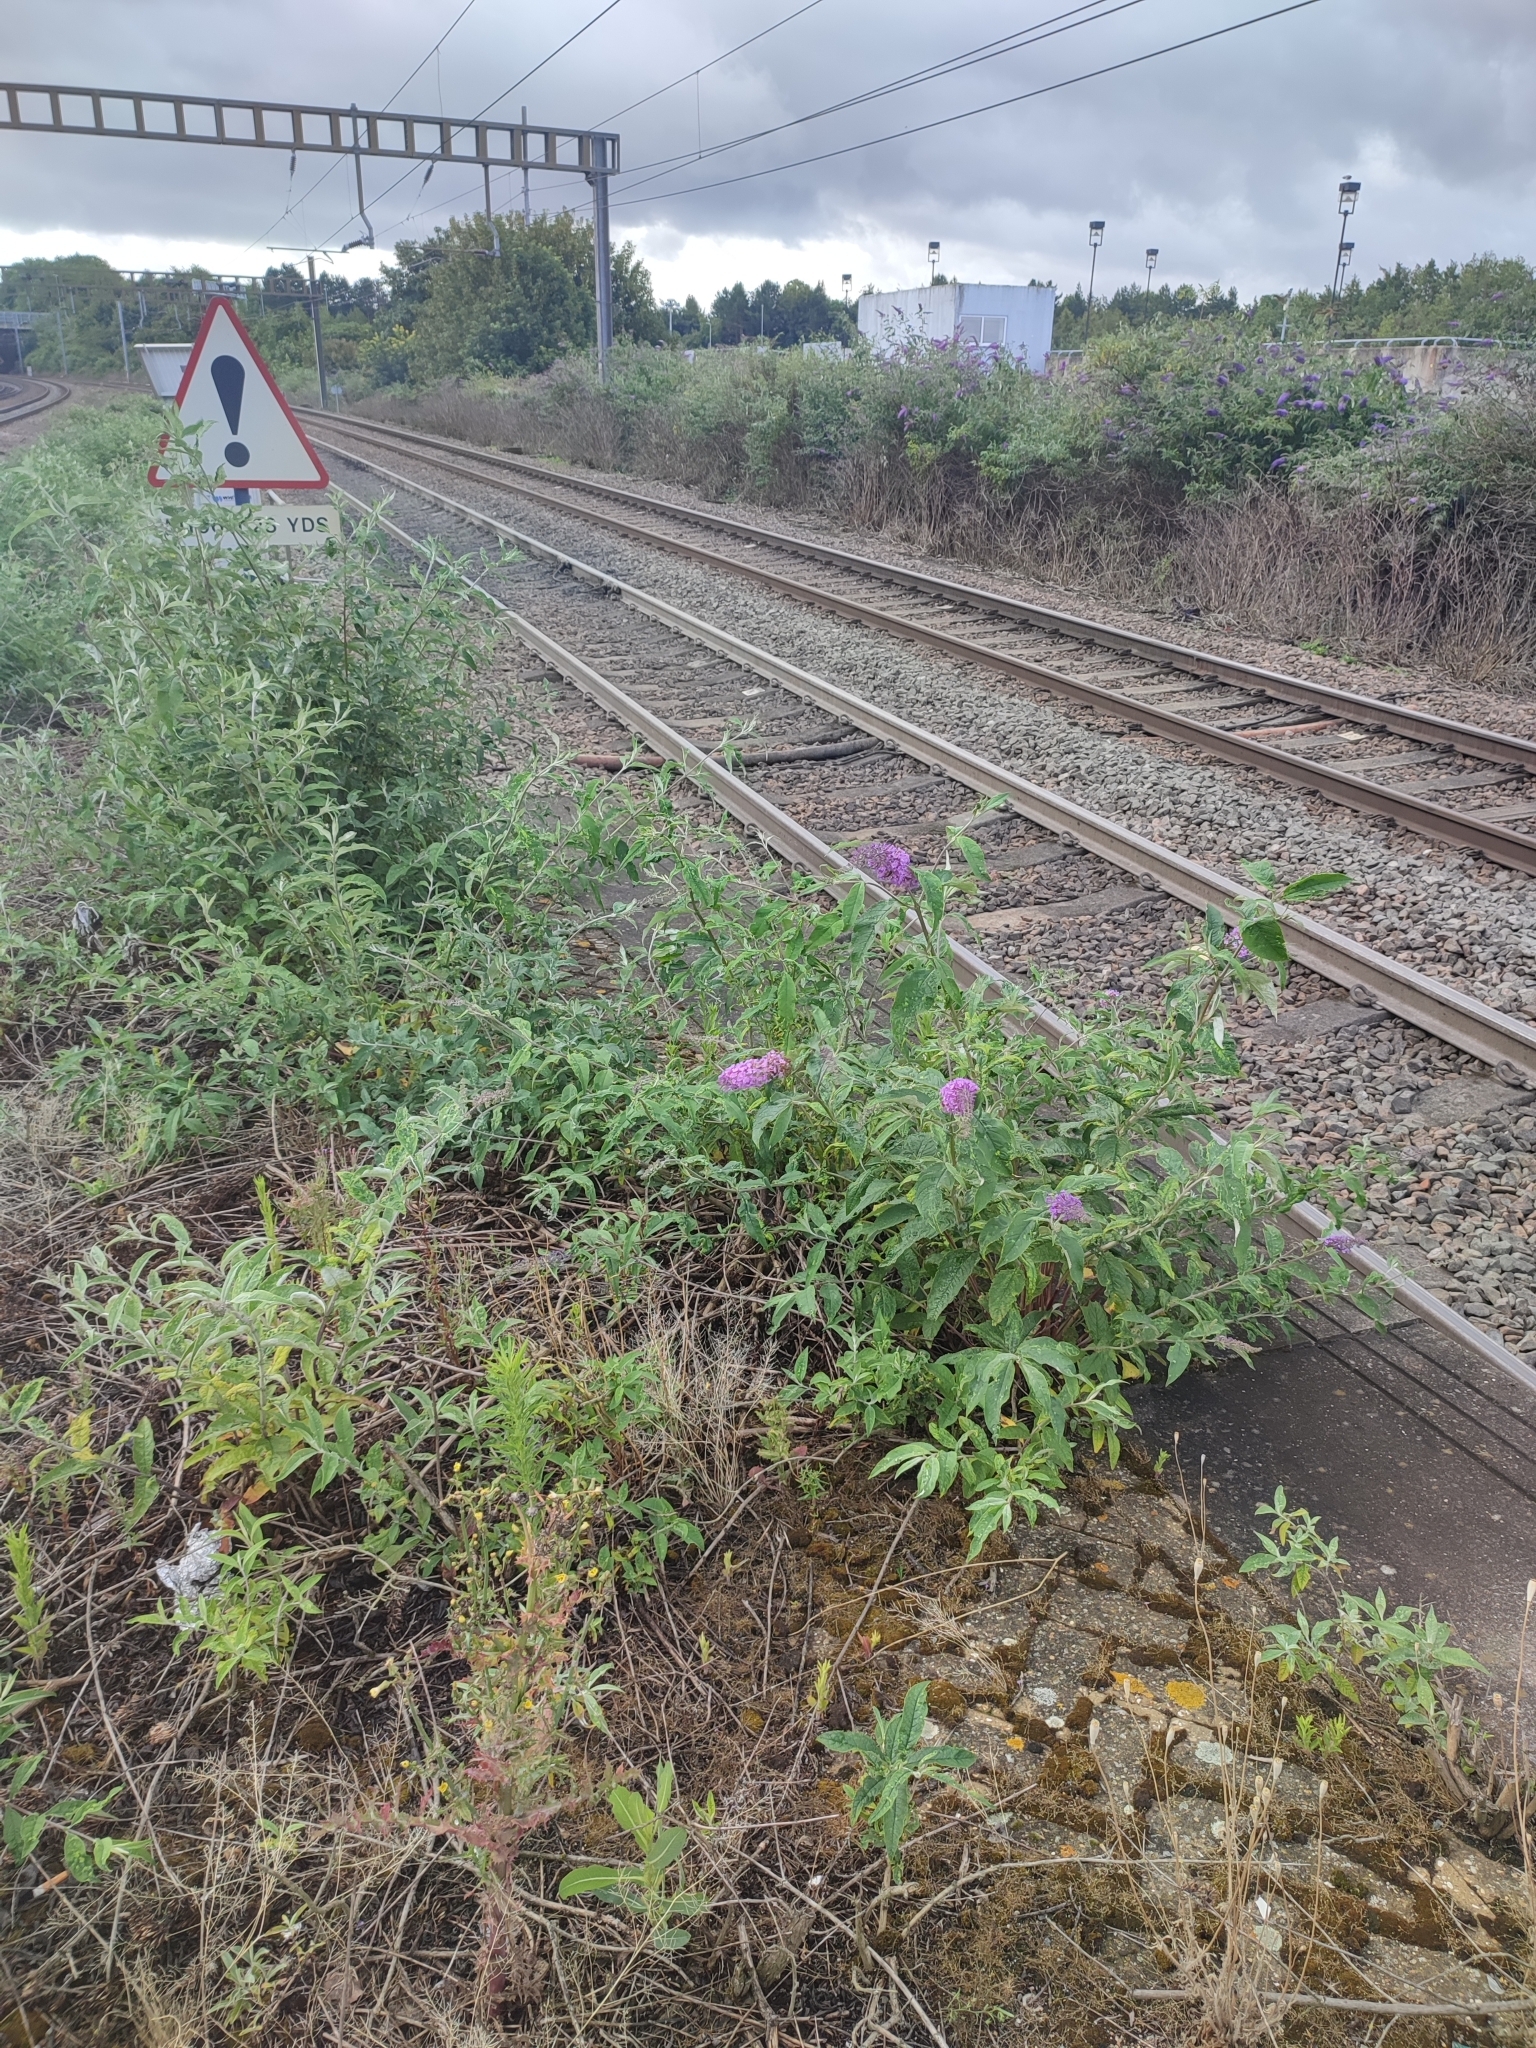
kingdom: Plantae
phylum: Tracheophyta
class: Magnoliopsida
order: Lamiales
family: Scrophulariaceae
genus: Buddleja
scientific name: Buddleja davidii
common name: Butterfly-bush
